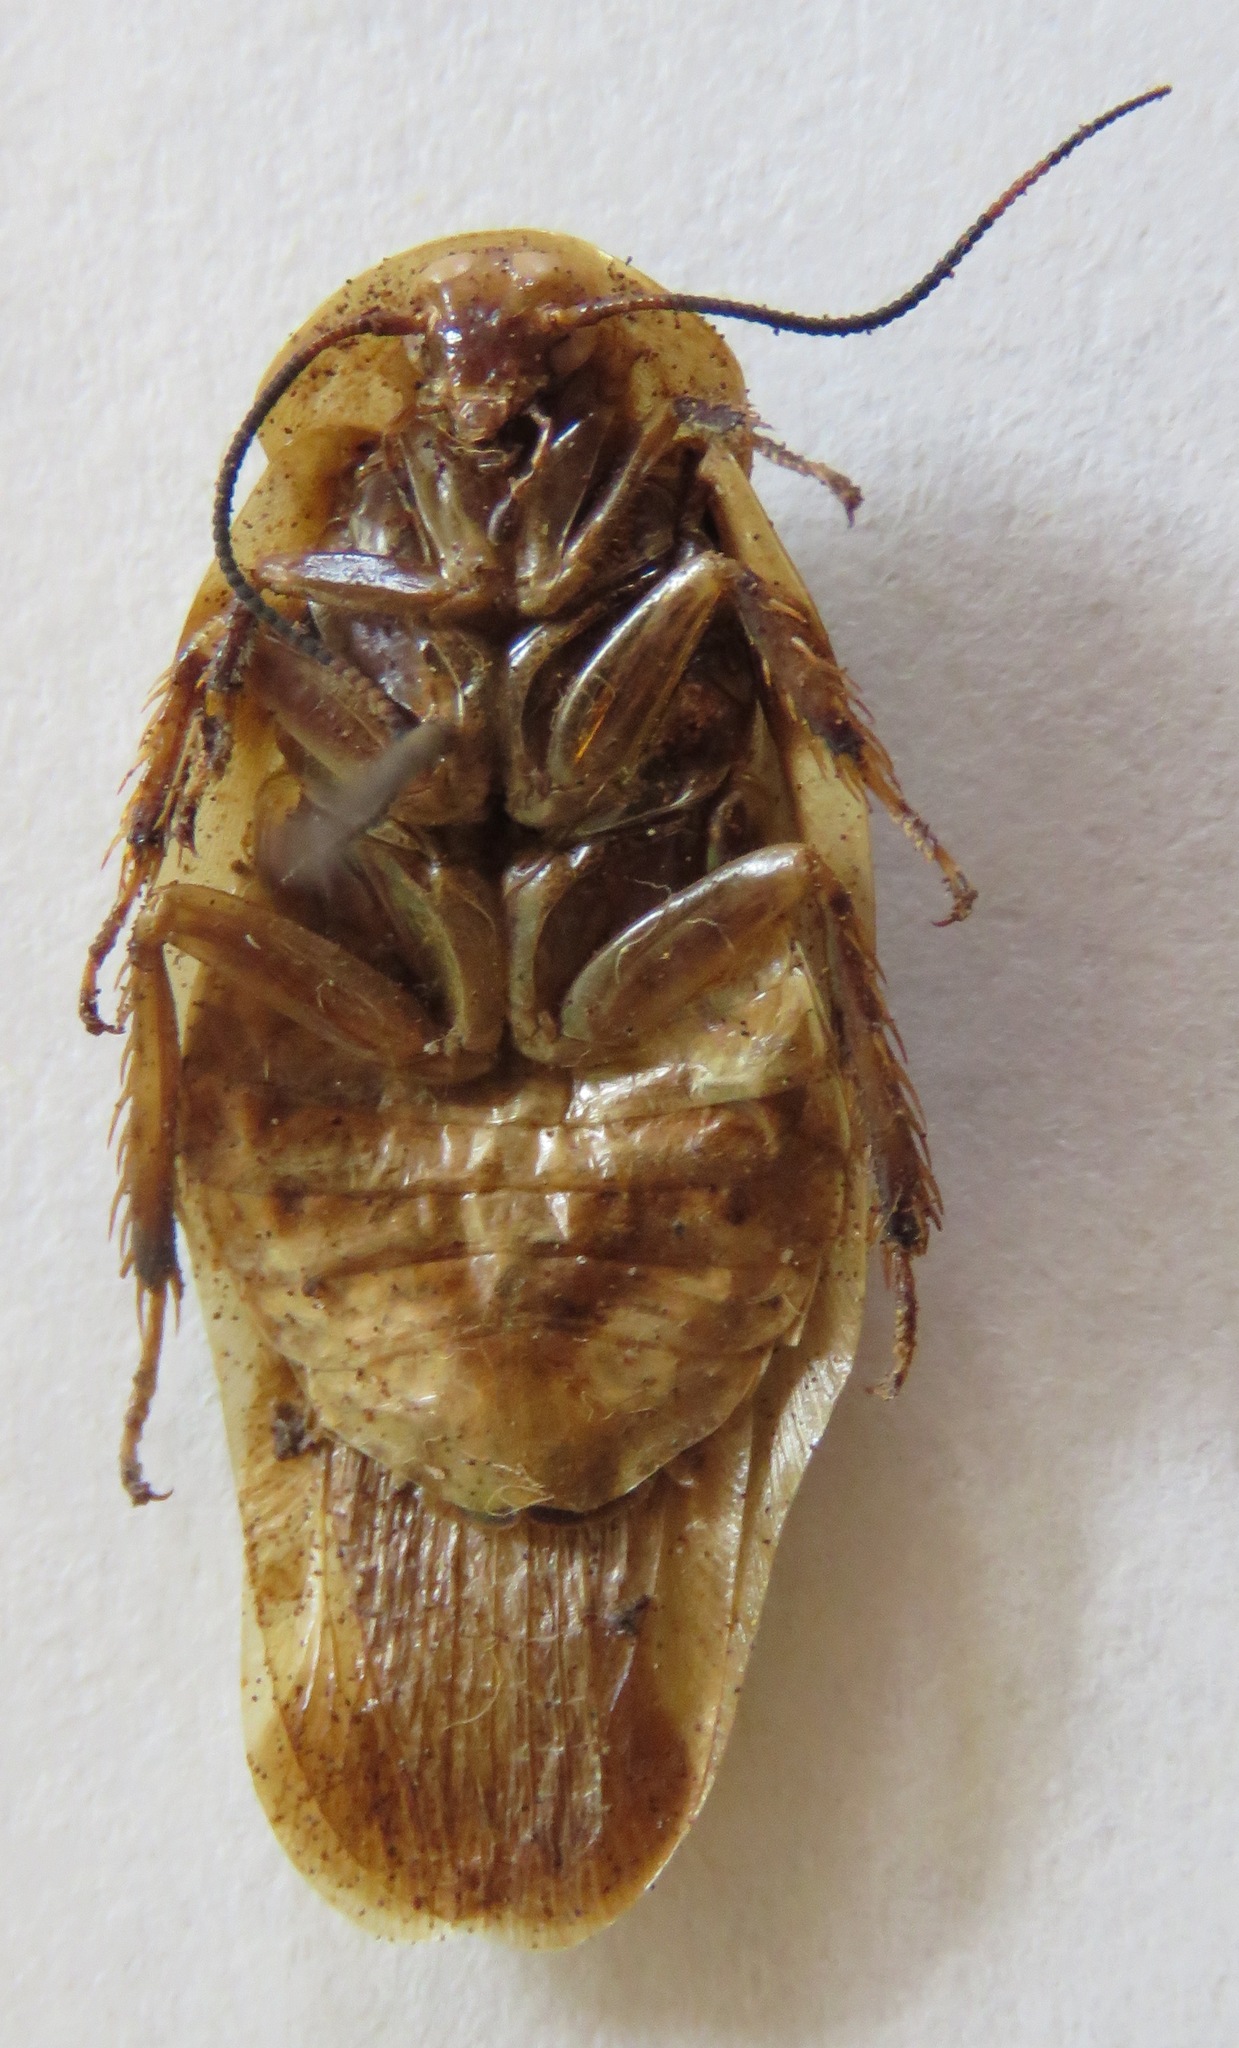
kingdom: Animalia
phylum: Arthropoda
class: Insecta
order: Blattodea
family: Blaberidae
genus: Achroblatta
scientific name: Achroblatta luteola
